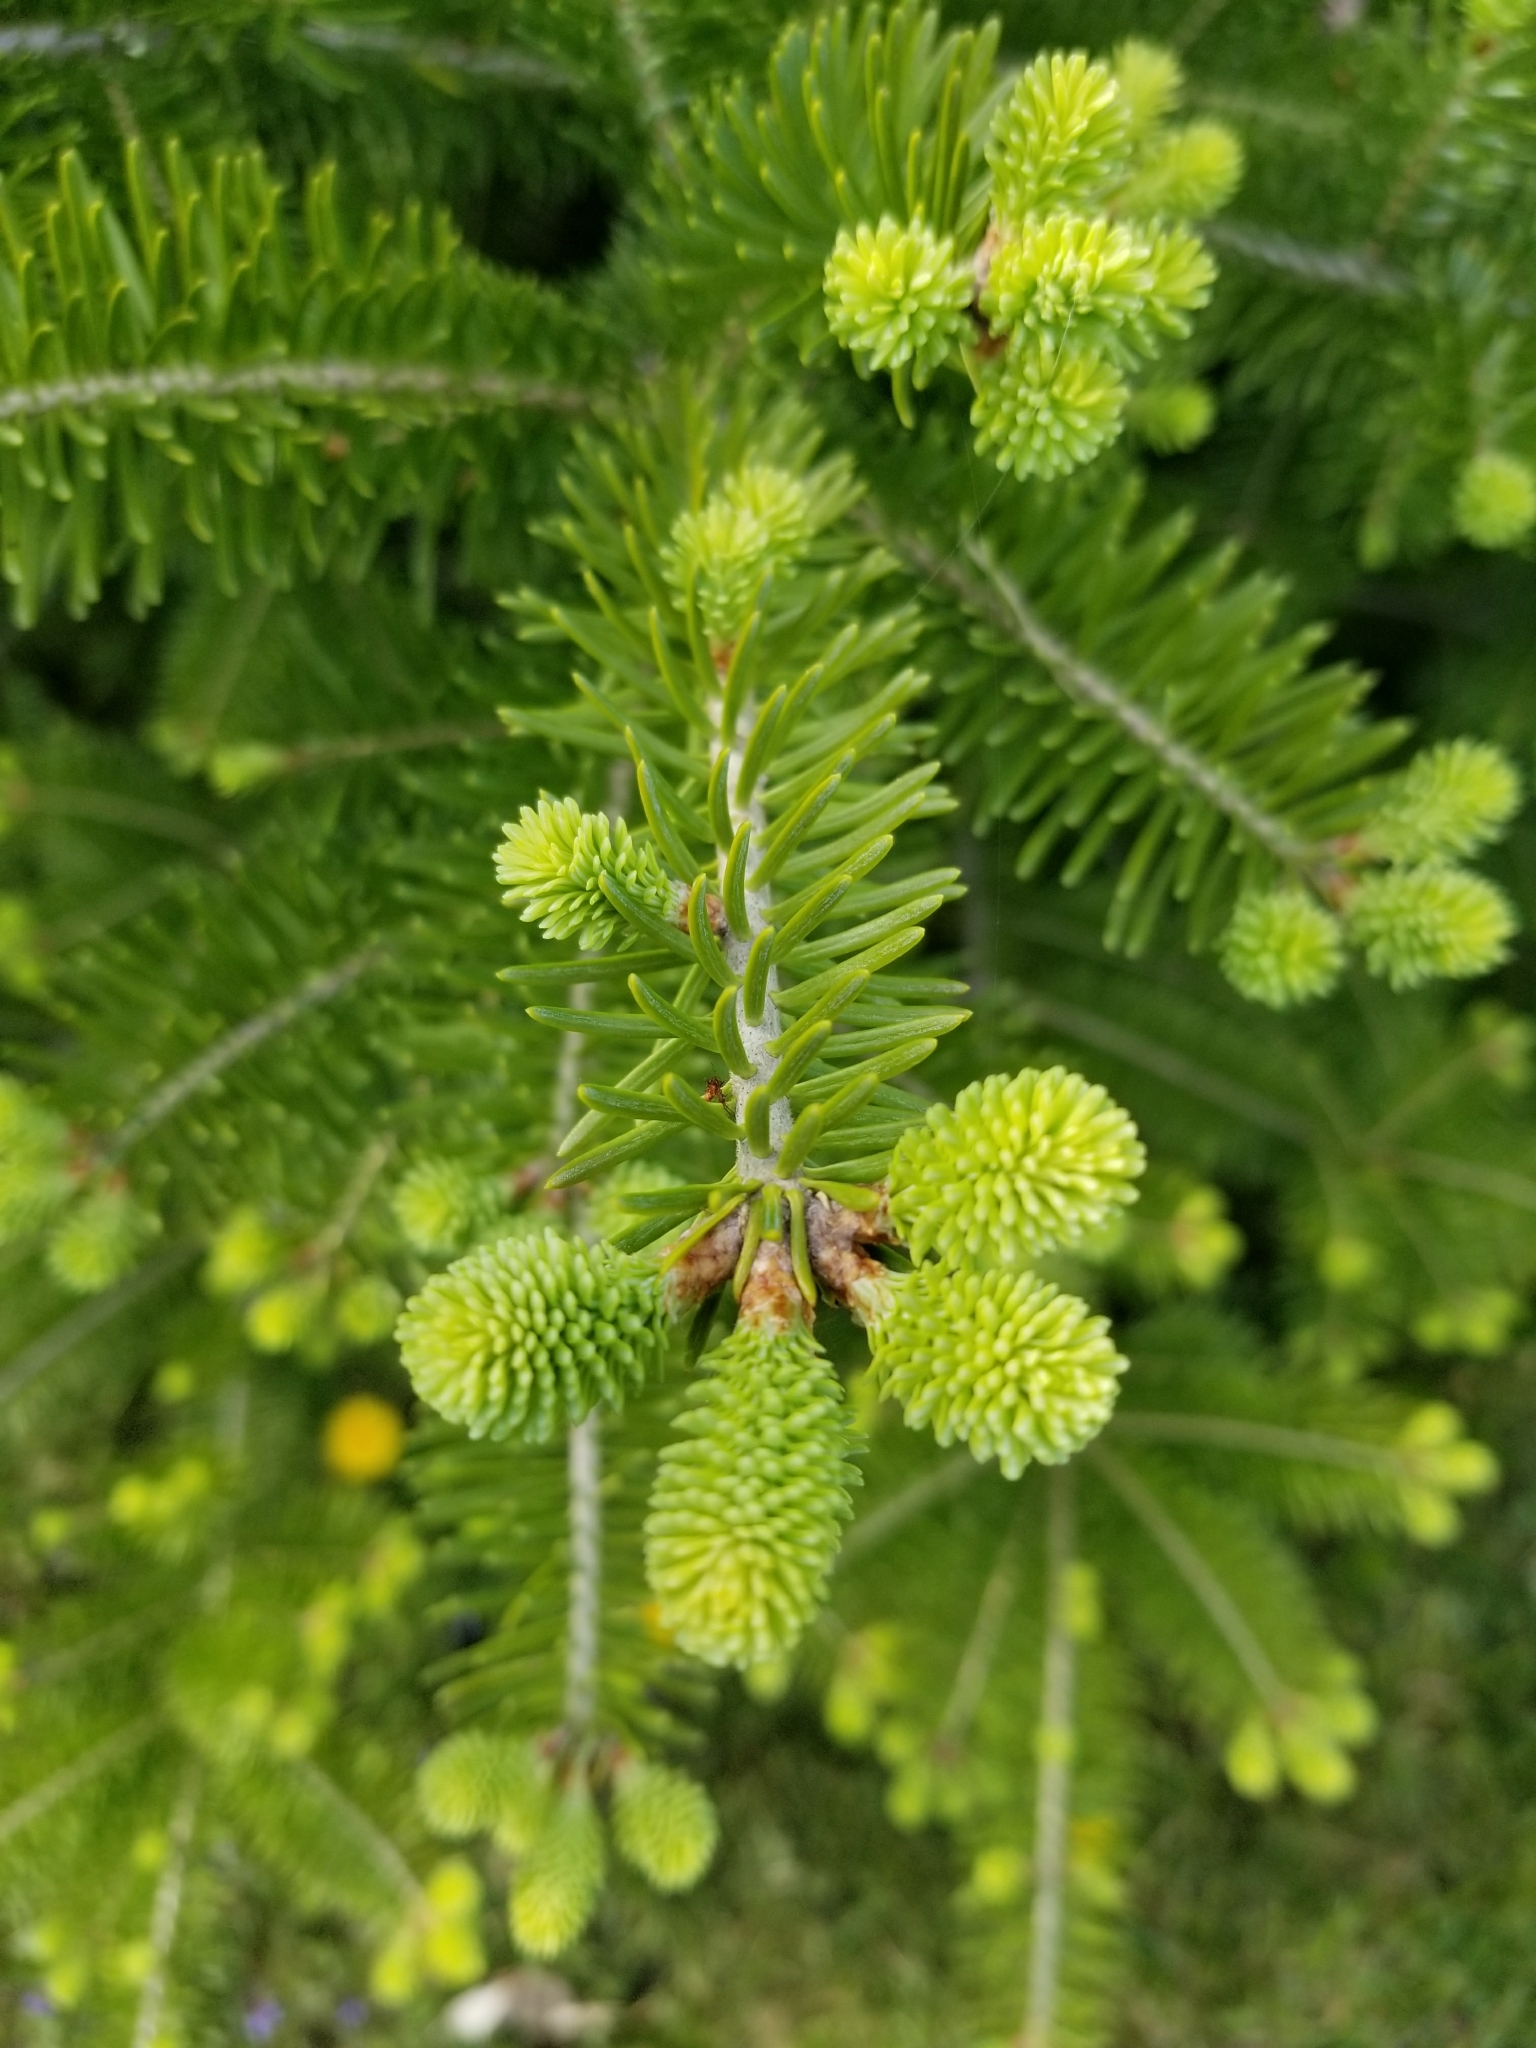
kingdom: Plantae
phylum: Tracheophyta
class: Pinopsida
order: Pinales
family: Pinaceae
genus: Abies
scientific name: Abies balsamea
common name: Balsam fir
